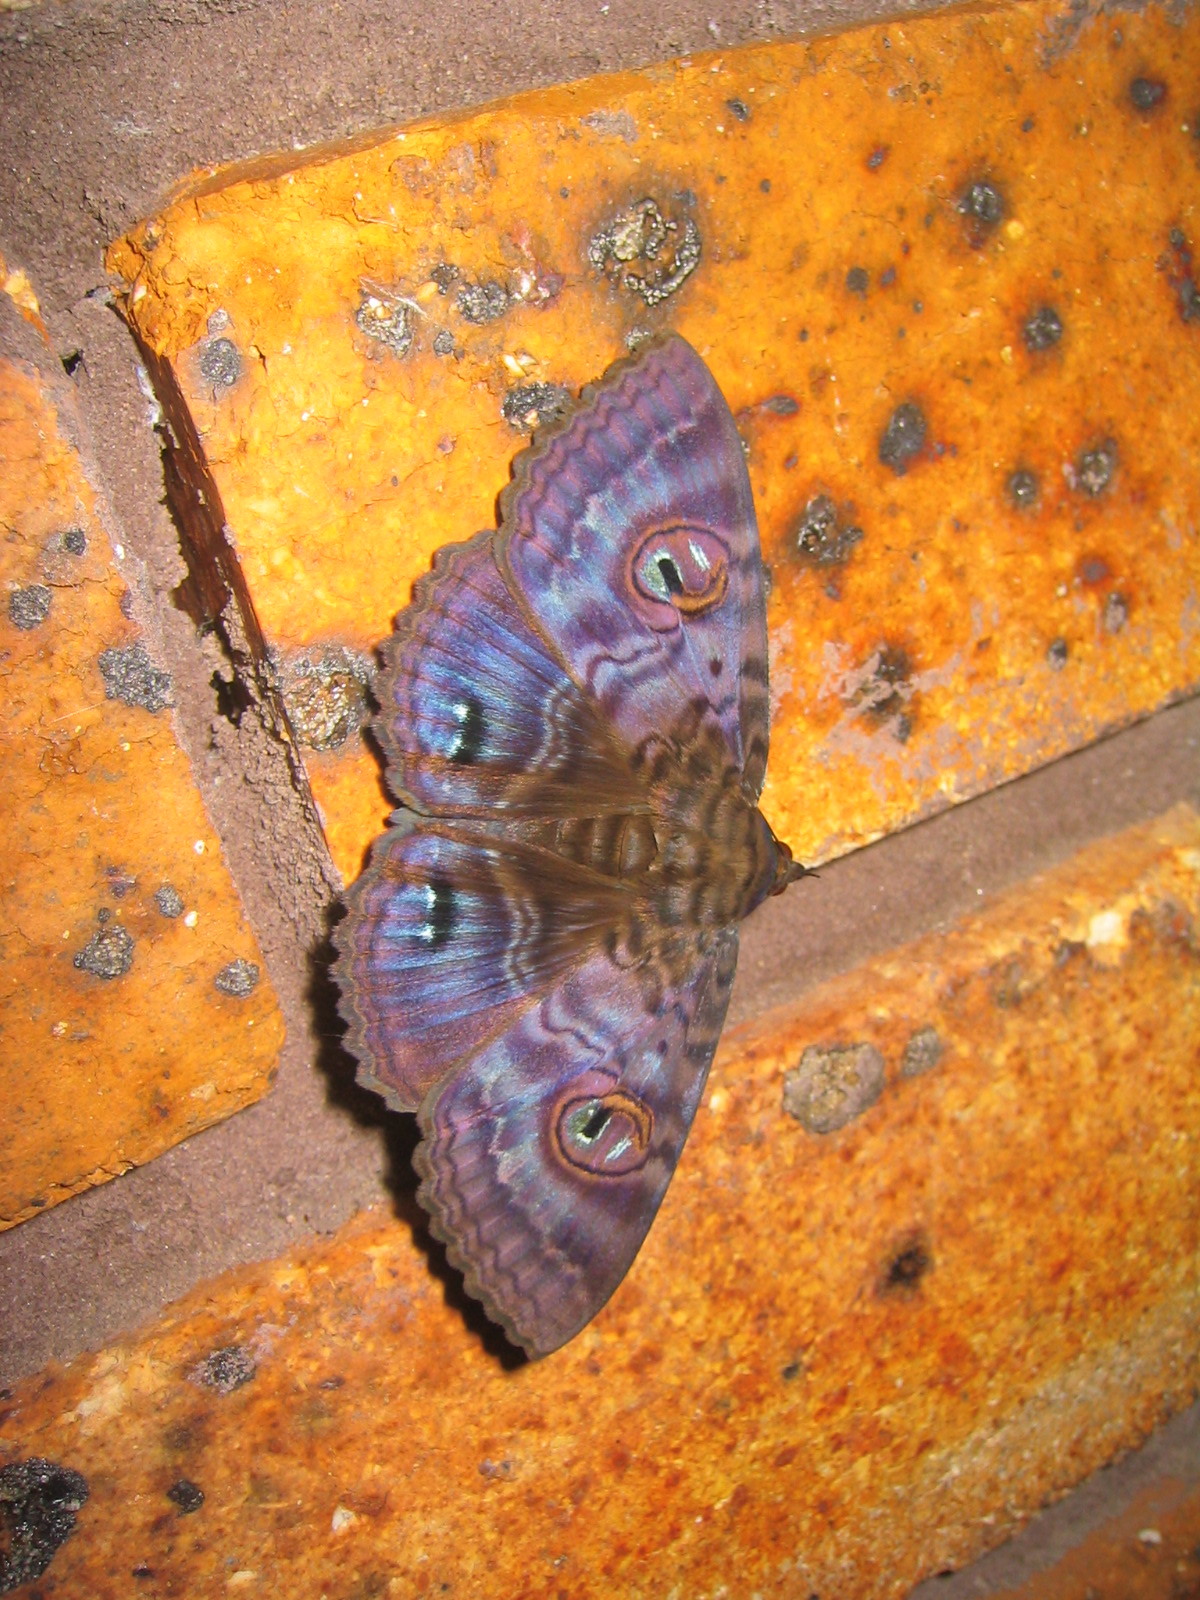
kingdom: Animalia
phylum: Arthropoda
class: Insecta
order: Lepidoptera
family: Erebidae
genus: Speiredonia
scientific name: Speiredonia spectans
